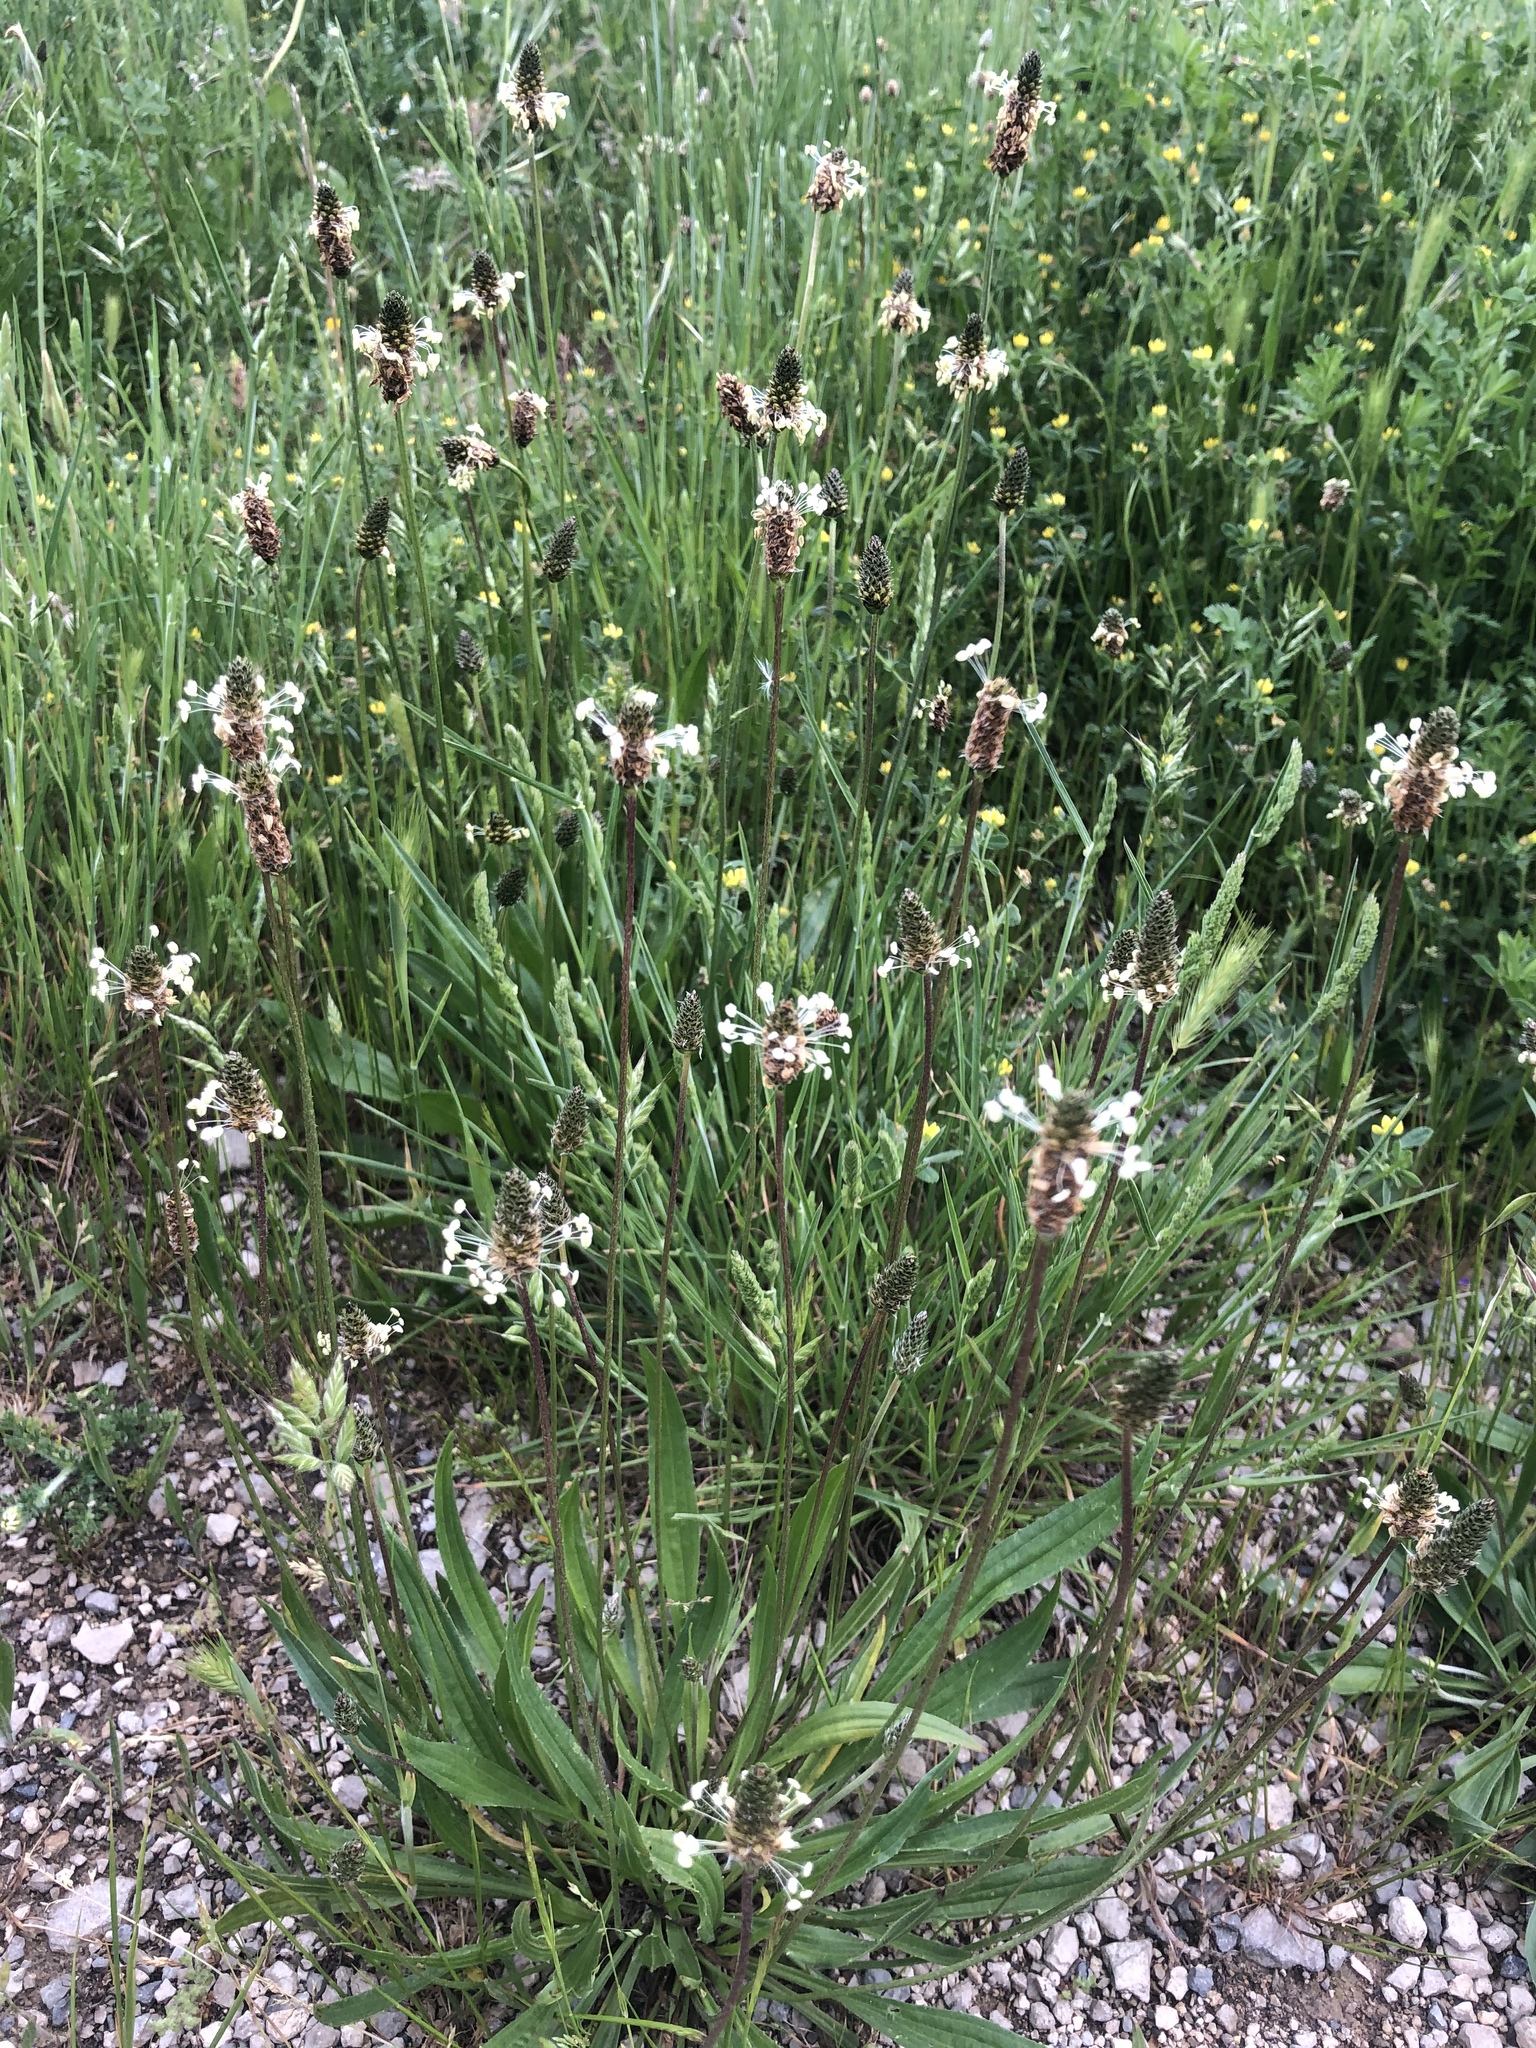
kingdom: Plantae
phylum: Tracheophyta
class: Magnoliopsida
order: Lamiales
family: Plantaginaceae
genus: Plantago
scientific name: Plantago lanceolata
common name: Ribwort plantain
